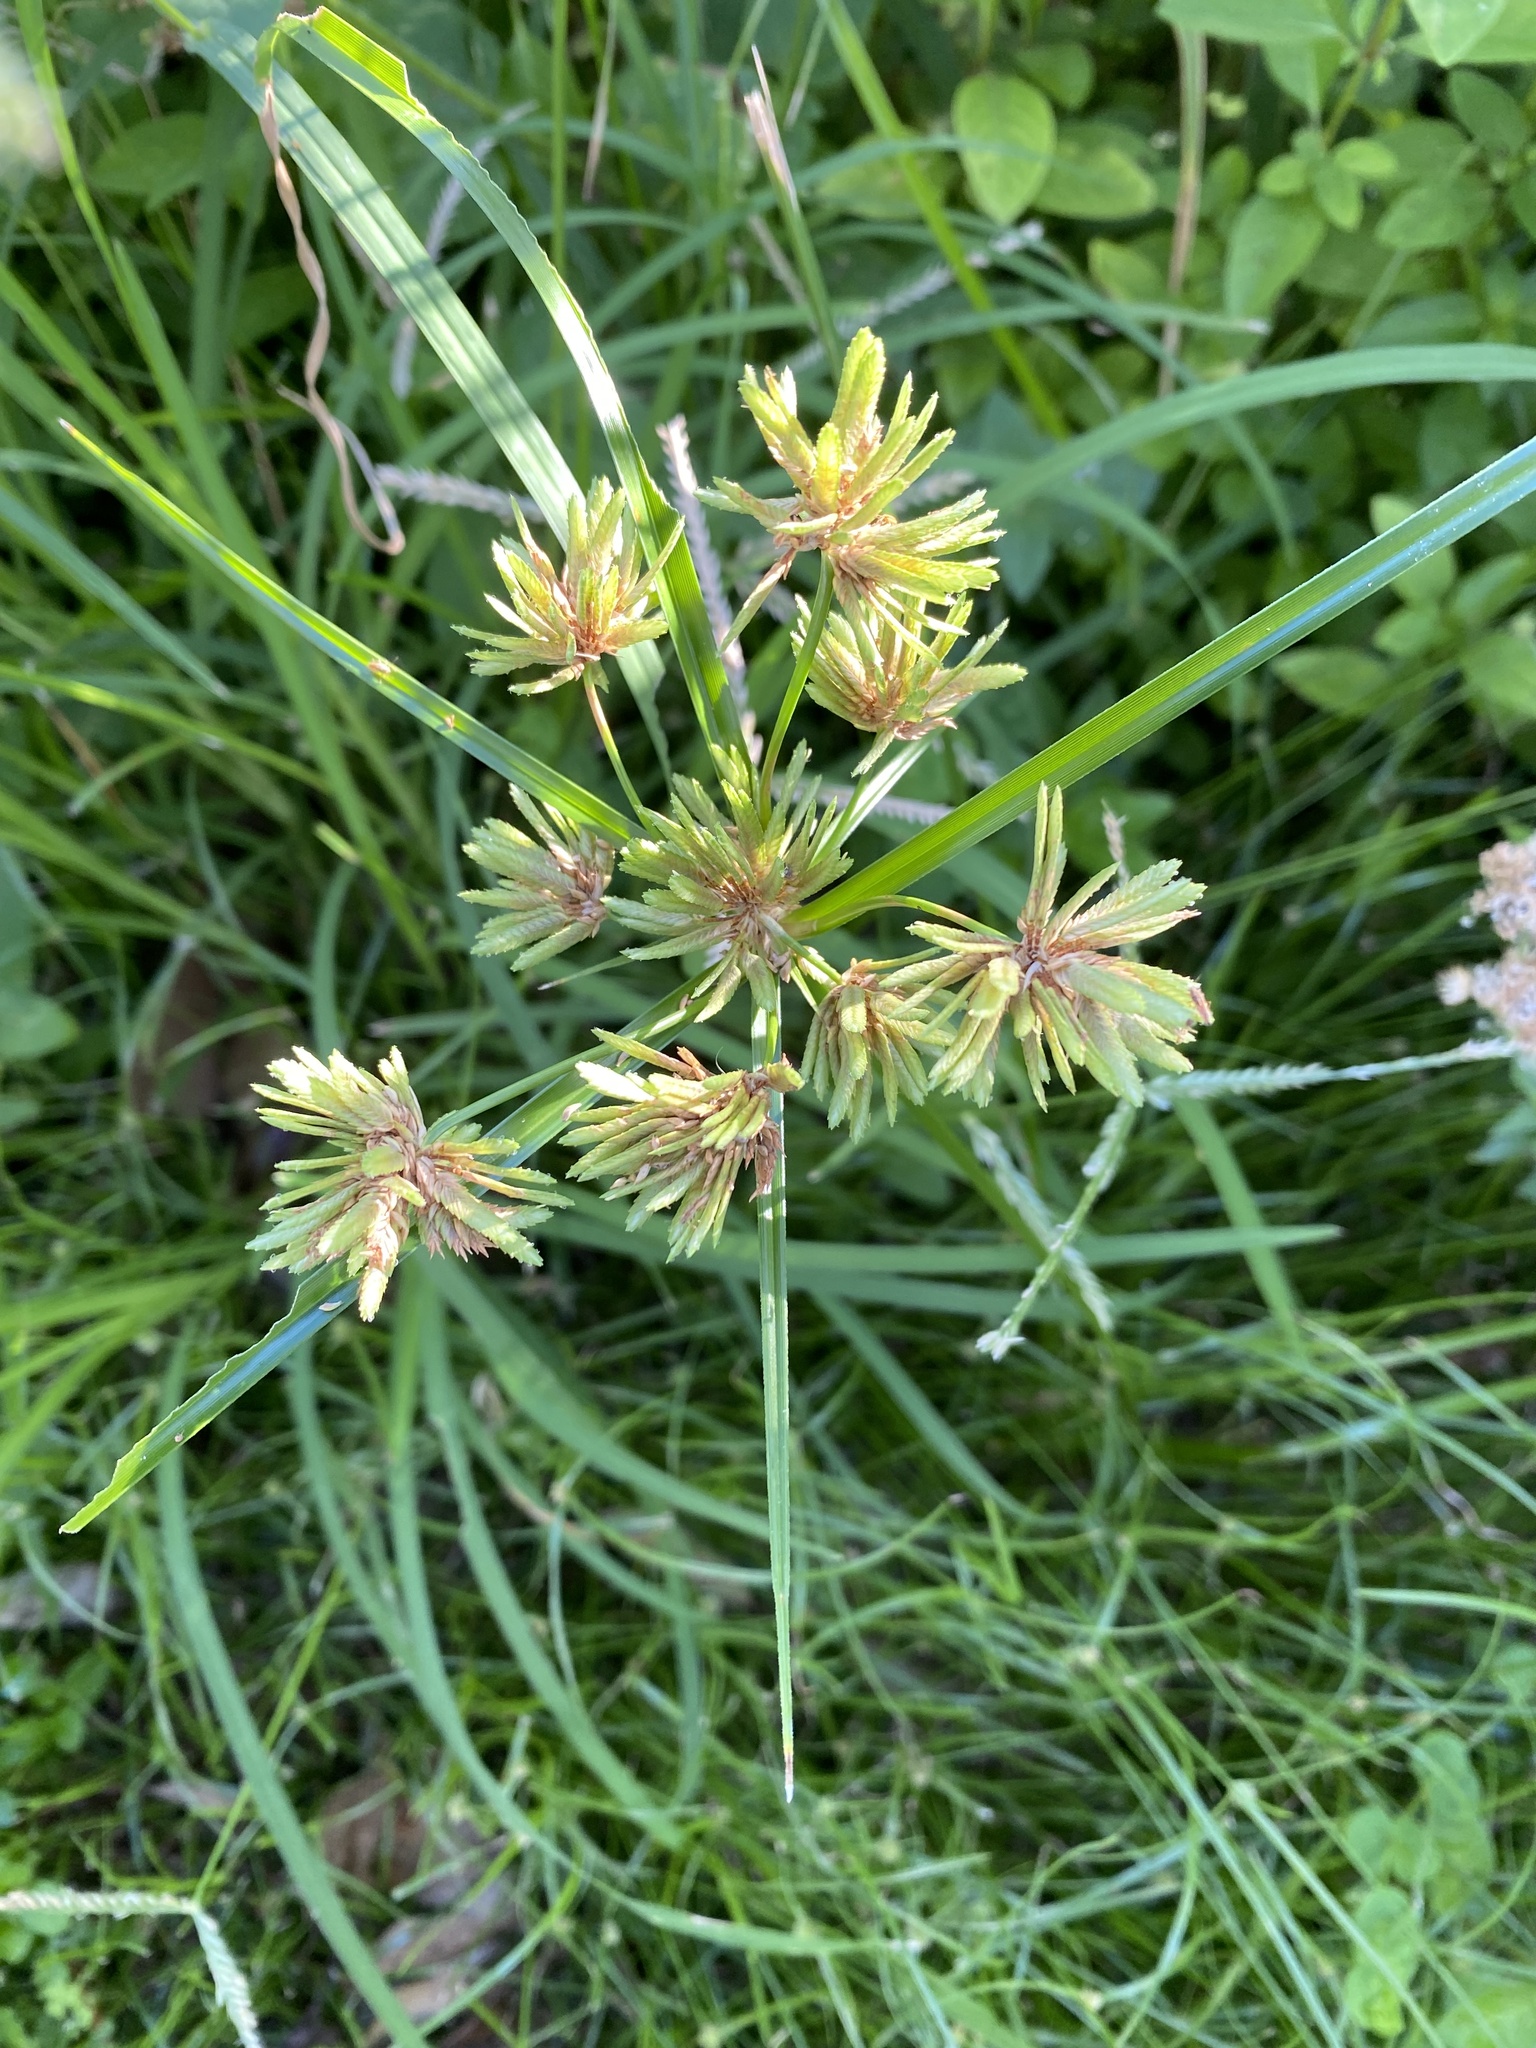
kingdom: Plantae
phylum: Tracheophyta
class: Liliopsida
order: Poales
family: Cyperaceae
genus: Cyperus
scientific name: Cyperus eragrostis
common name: Tall flatsedge
